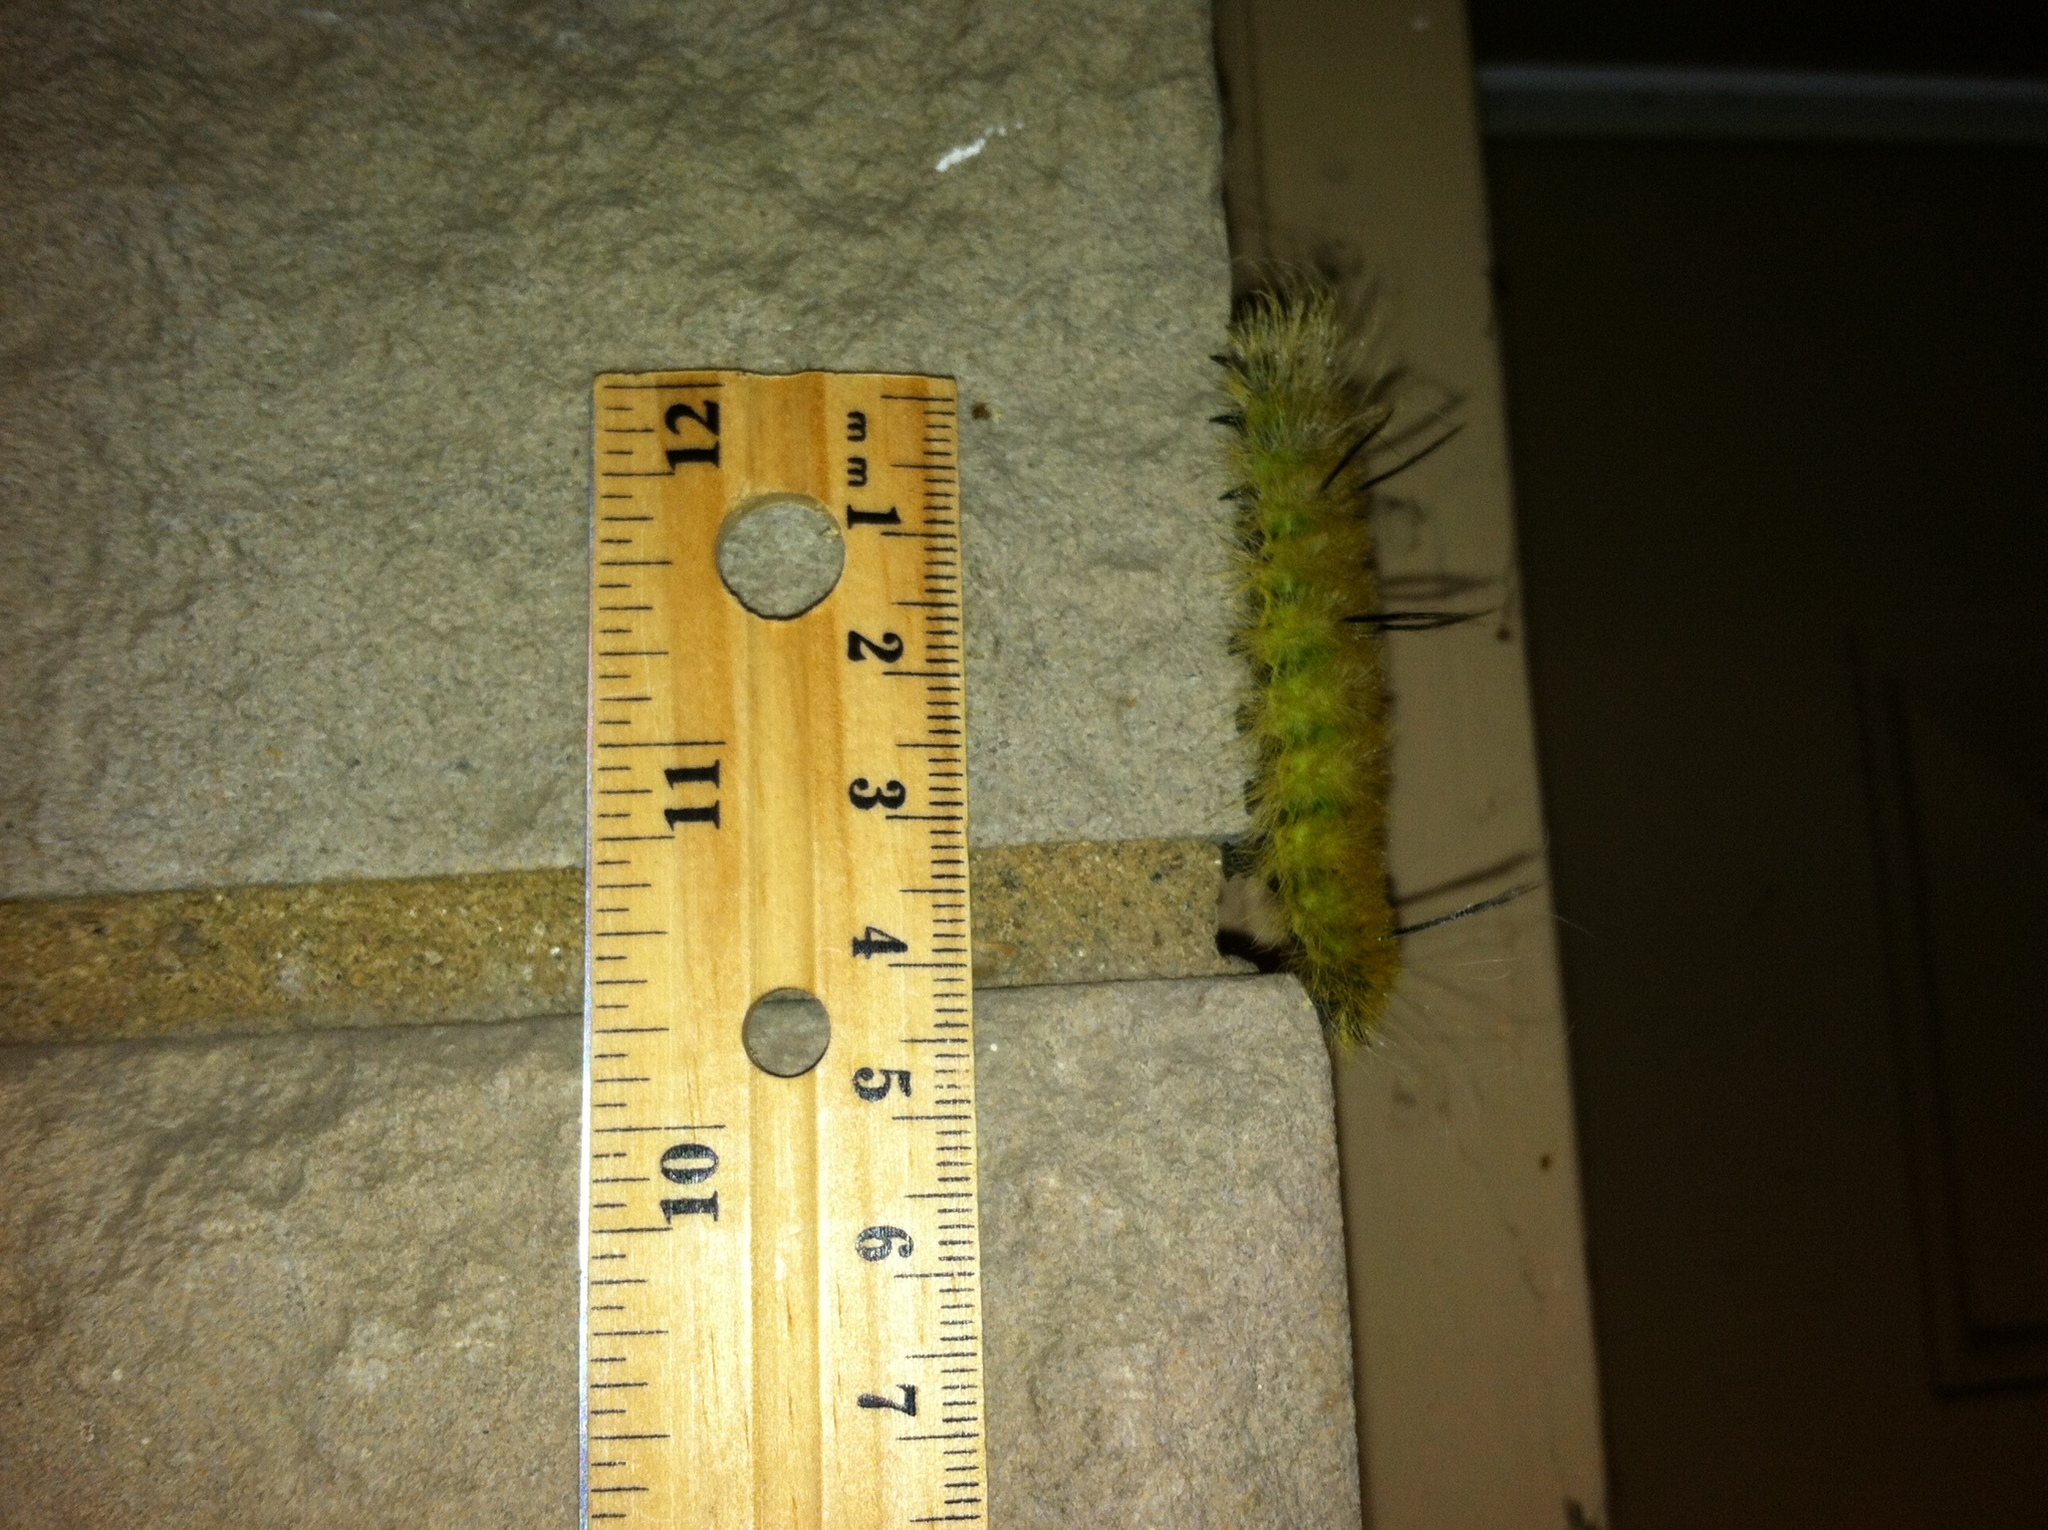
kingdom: Animalia
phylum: Arthropoda
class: Insecta
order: Lepidoptera
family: Noctuidae
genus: Acronicta
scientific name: Acronicta americana
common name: American dagger
